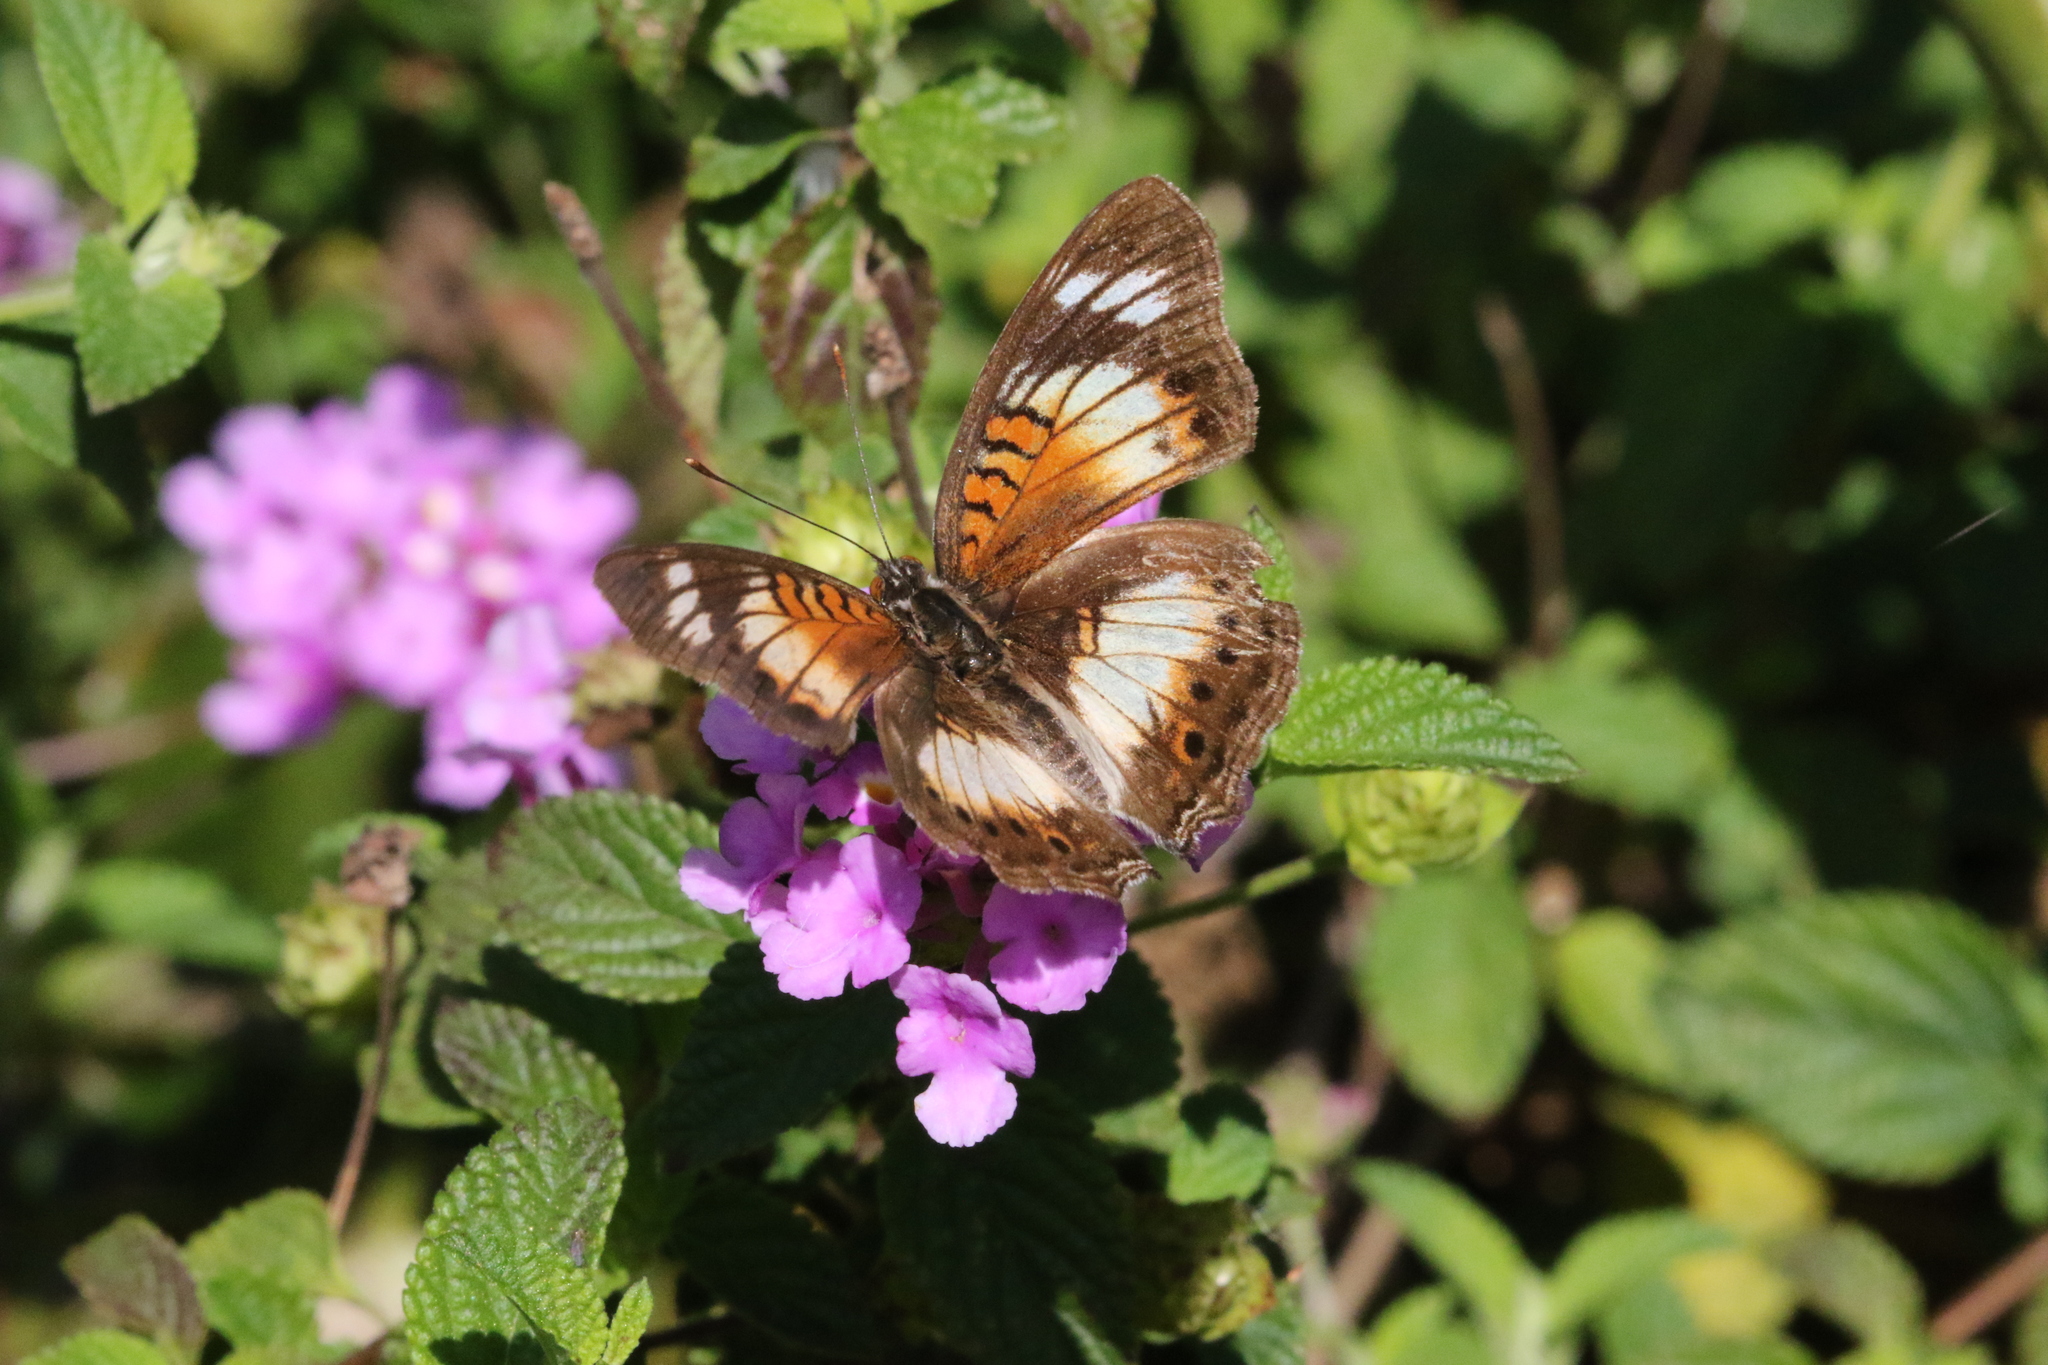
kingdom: Animalia
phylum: Arthropoda
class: Insecta
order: Lepidoptera
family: Nymphalidae
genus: Junonia
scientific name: Junonia sophia
